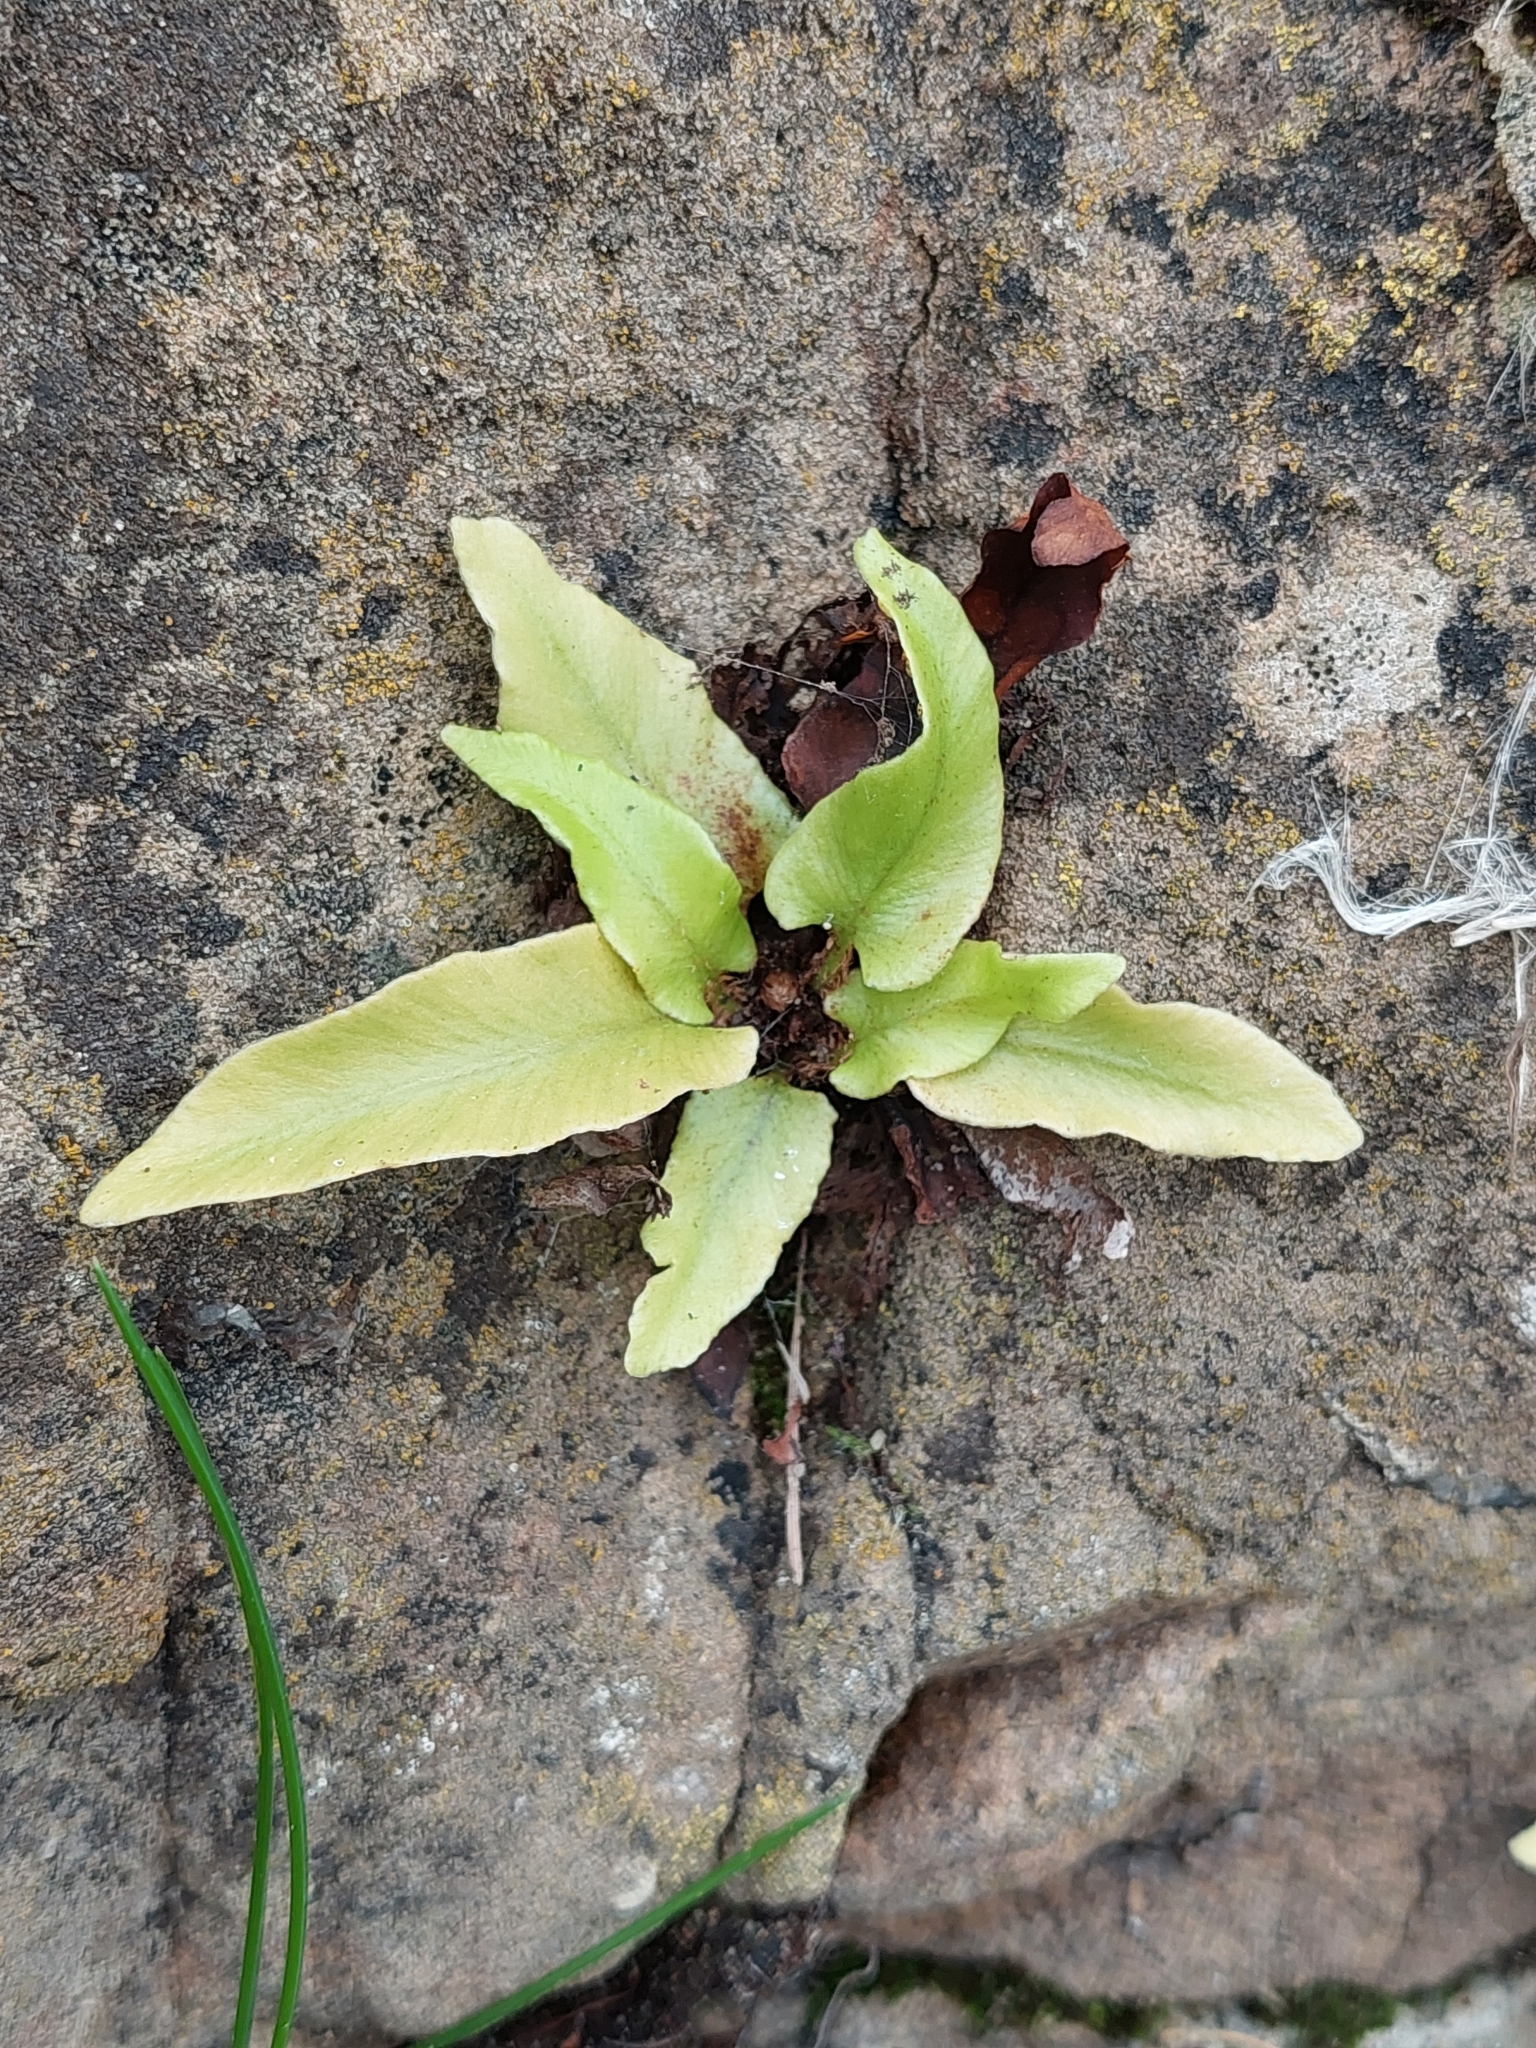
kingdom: Plantae
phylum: Tracheophyta
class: Polypodiopsida
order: Polypodiales
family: Aspleniaceae
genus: Asplenium
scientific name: Asplenium scolopendrium
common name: Hart's-tongue fern
